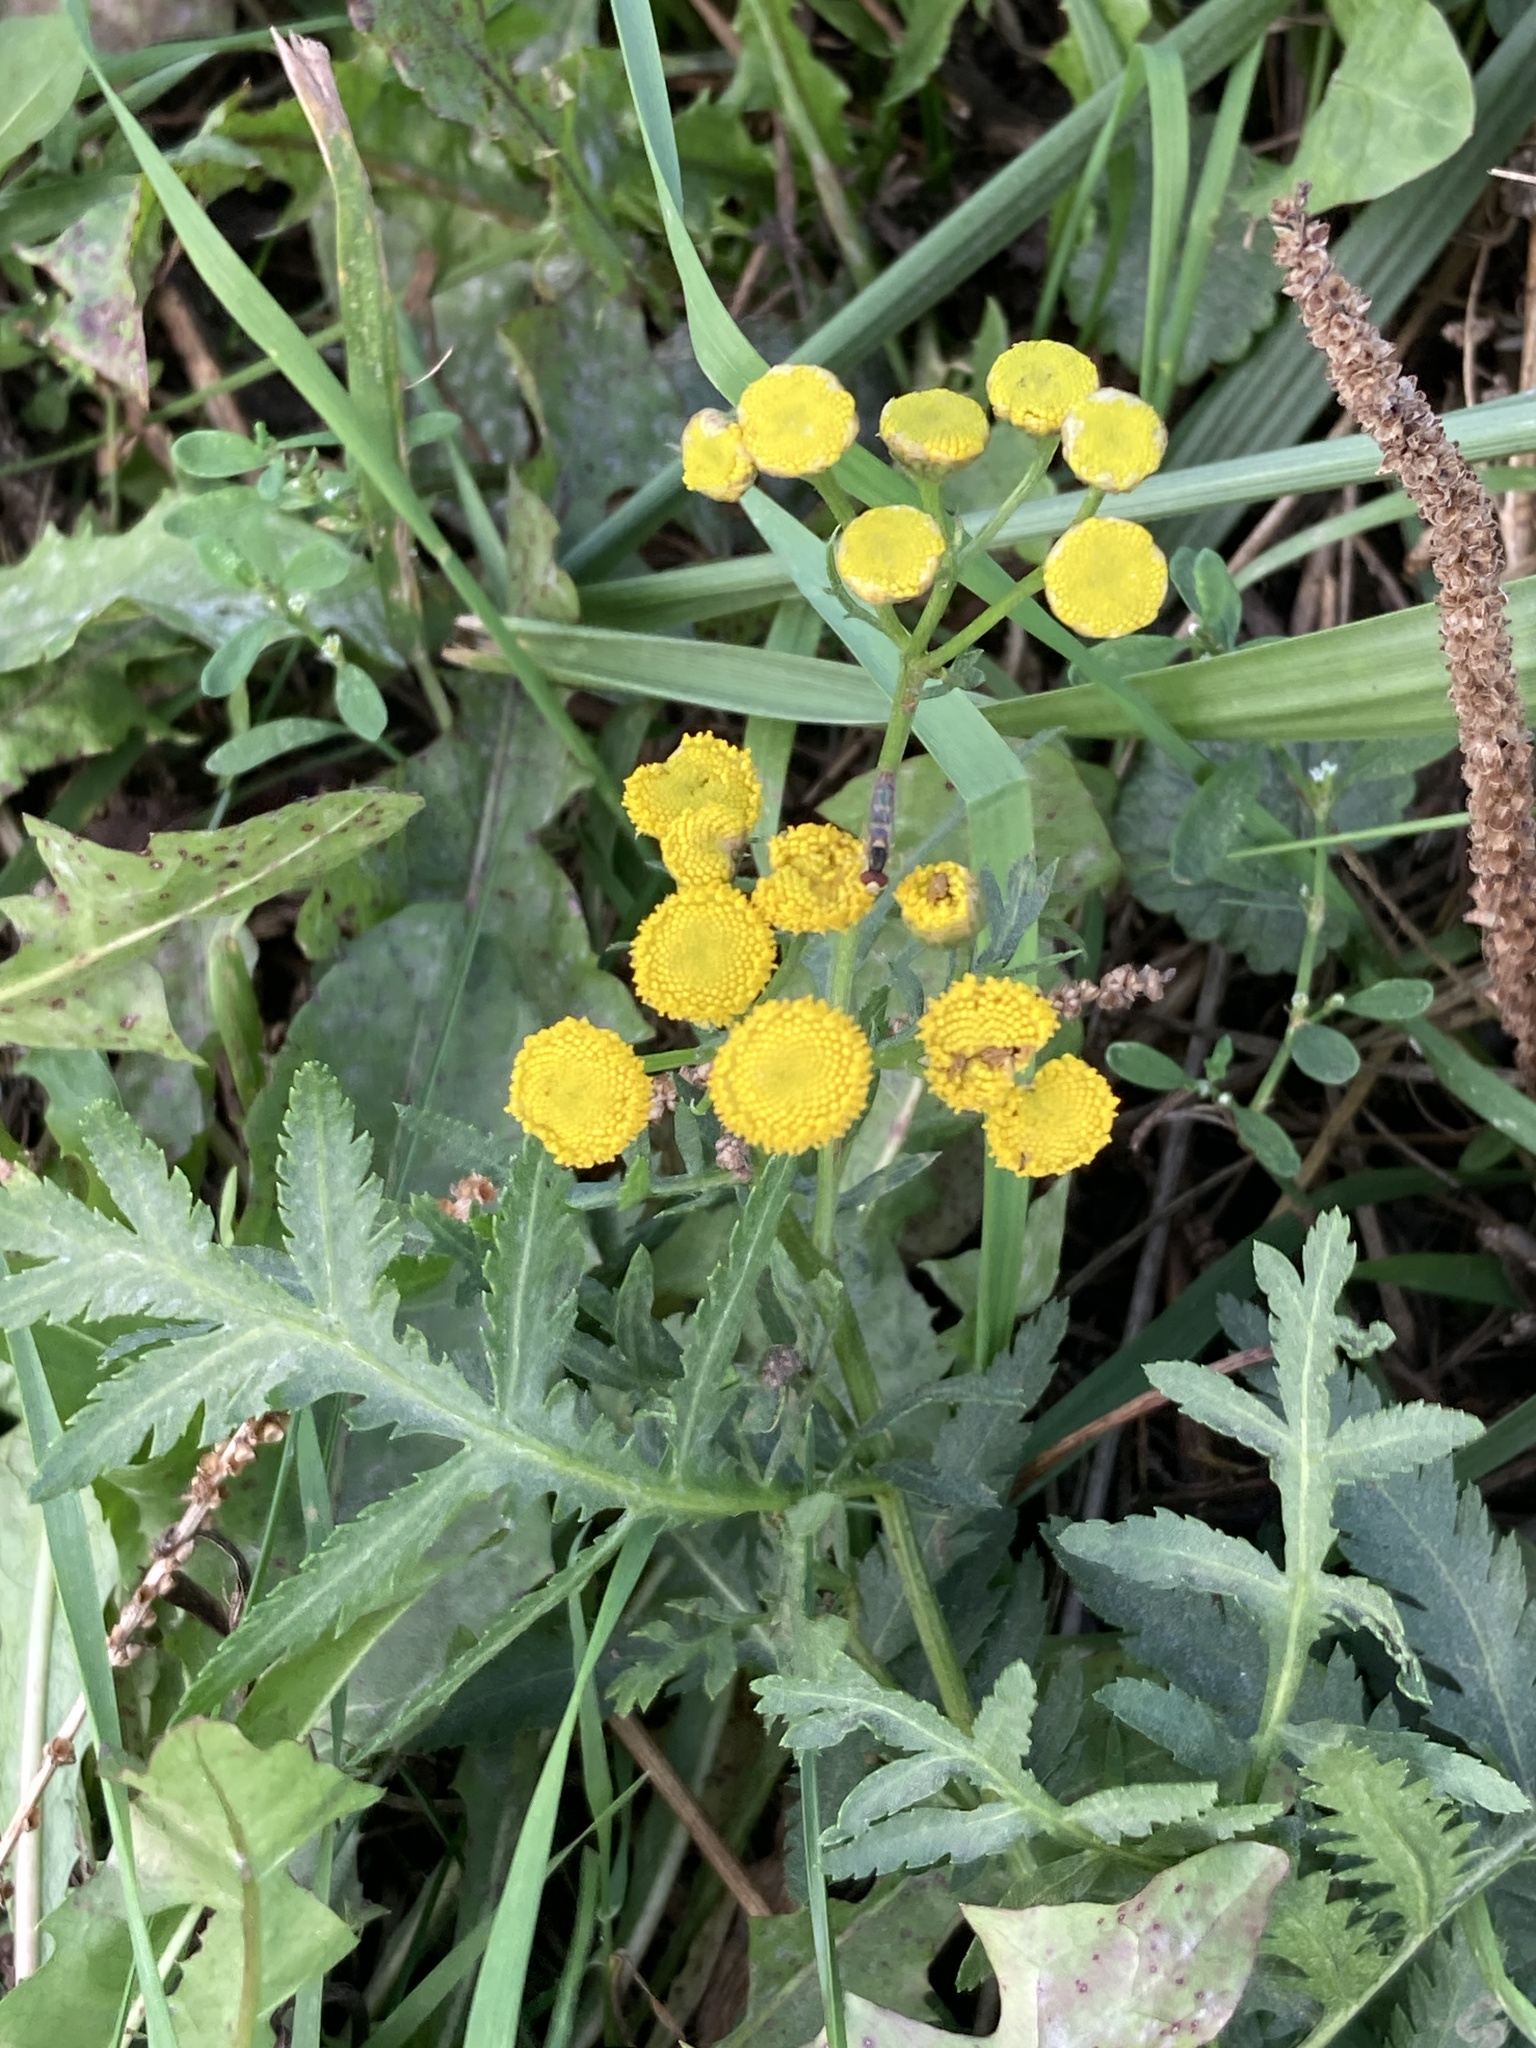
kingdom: Plantae
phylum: Tracheophyta
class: Magnoliopsida
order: Asterales
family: Asteraceae
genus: Tanacetum
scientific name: Tanacetum vulgare
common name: Common tansy
